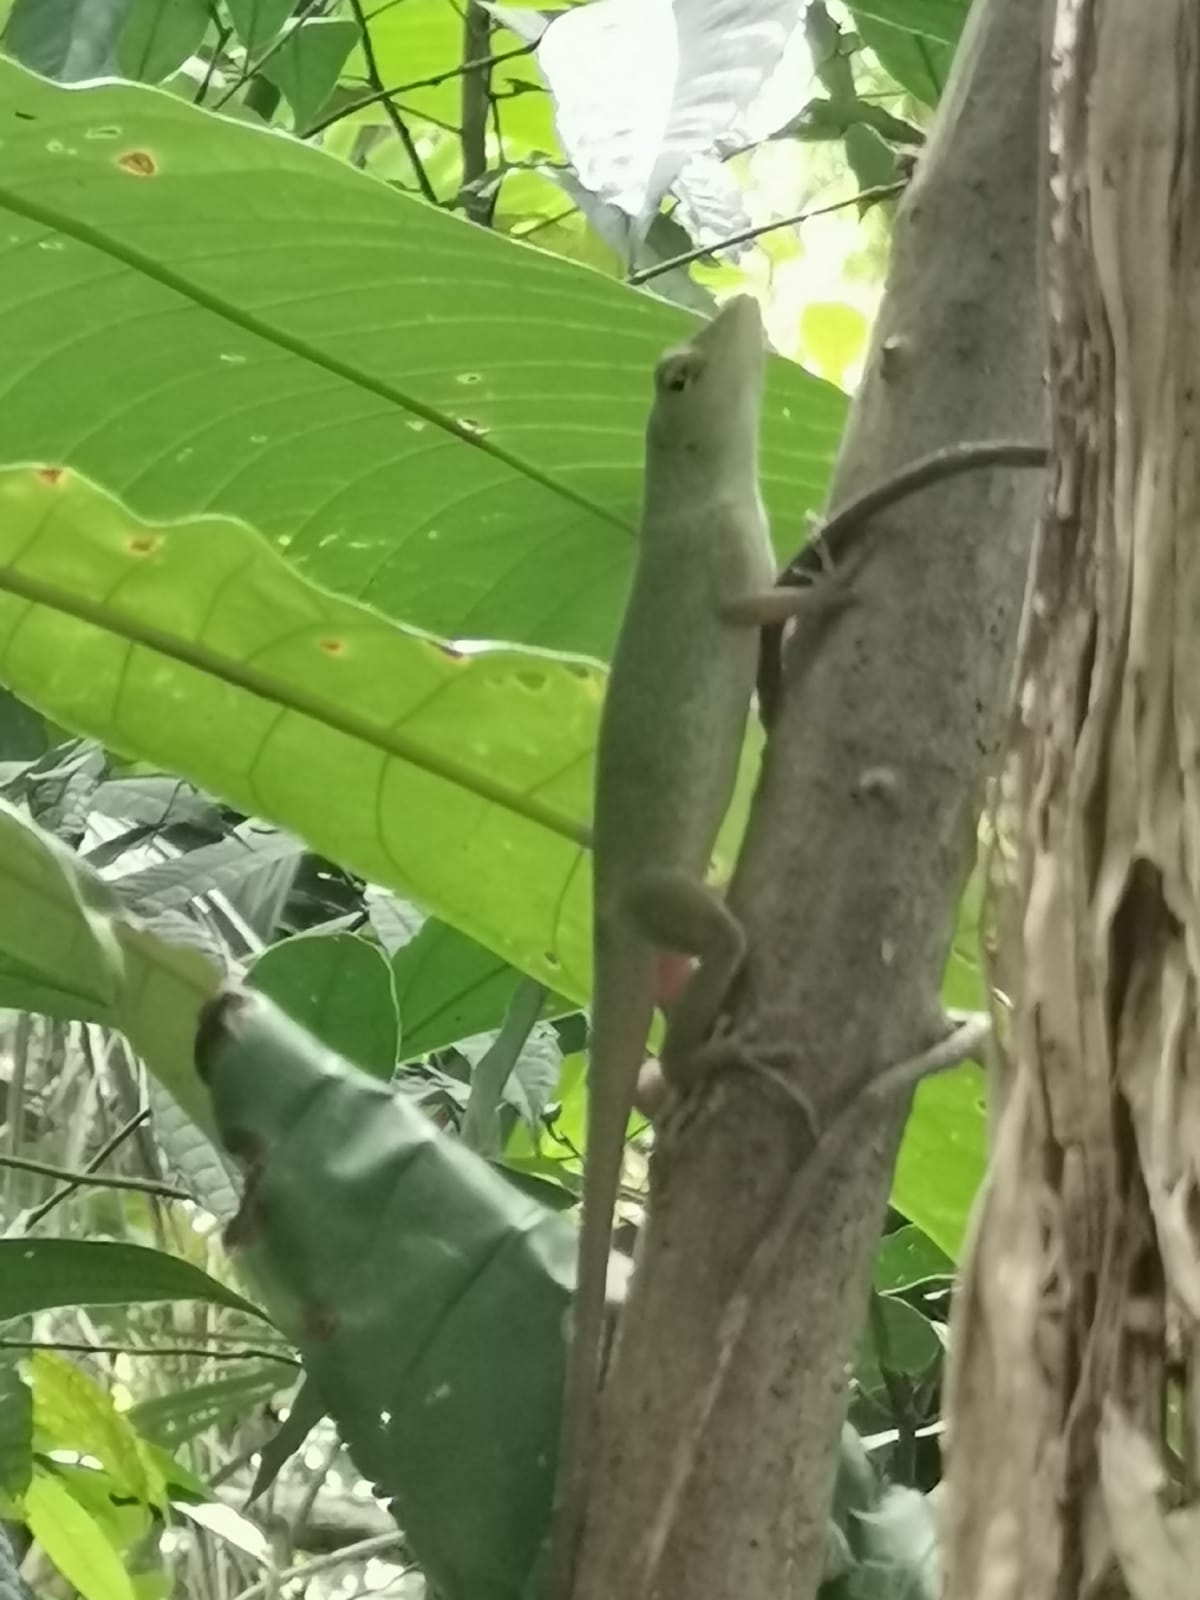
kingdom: Animalia
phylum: Chordata
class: Squamata
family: Dactyloidae
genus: Anolis
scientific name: Anolis biporcatus
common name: Giant green anole
